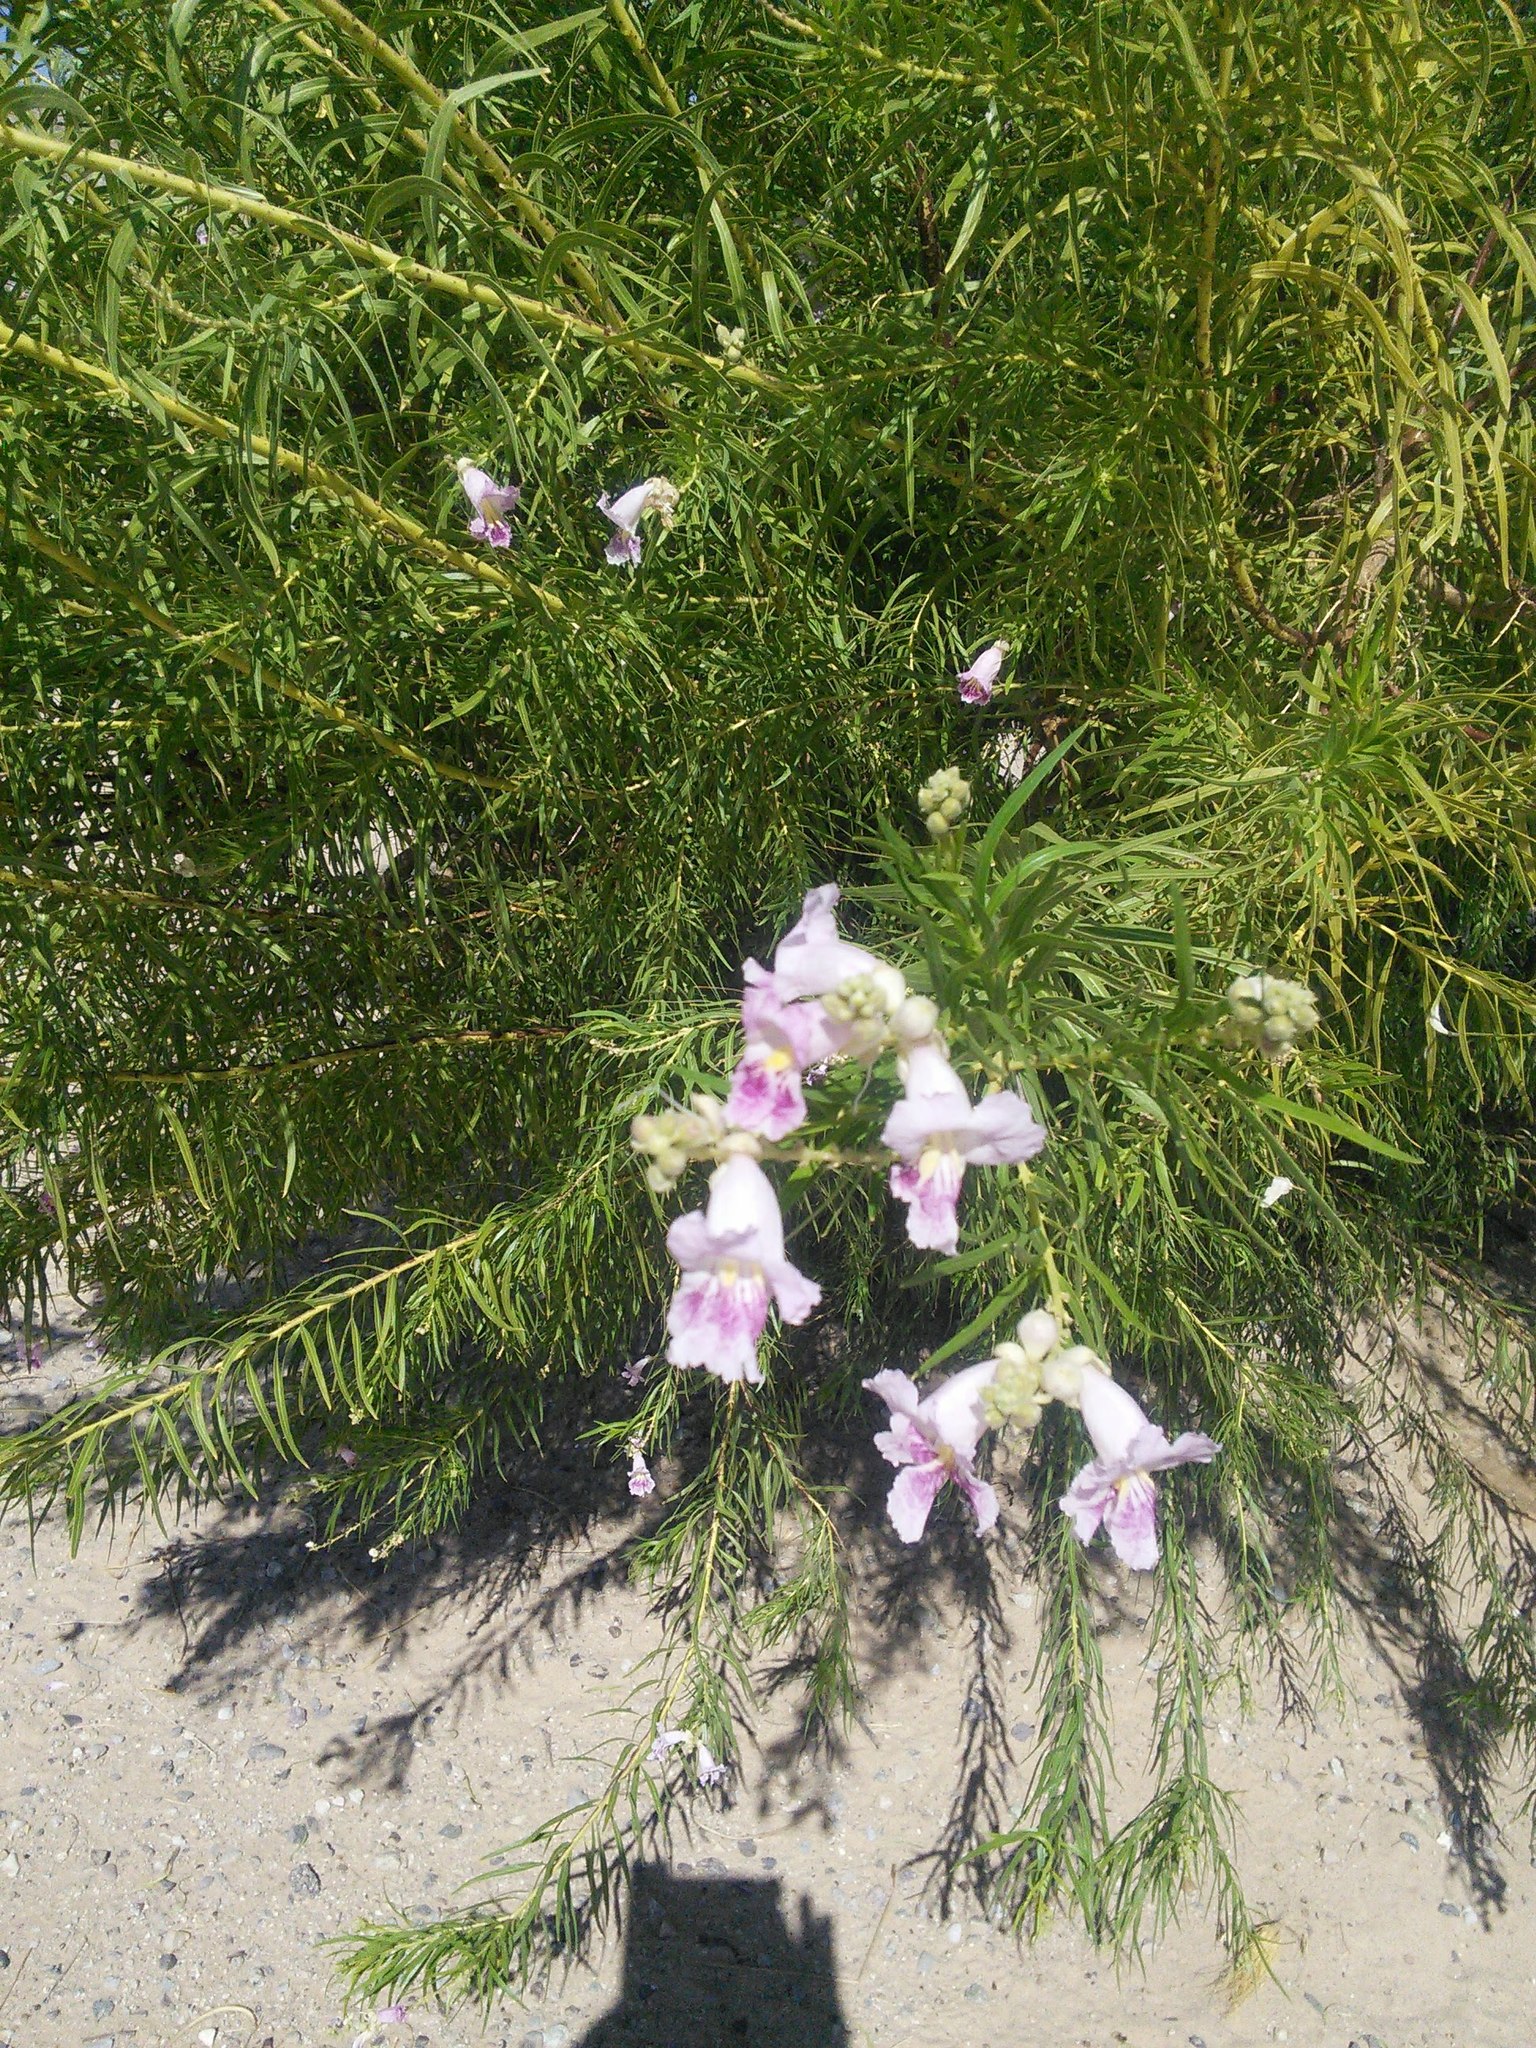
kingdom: Plantae
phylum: Tracheophyta
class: Magnoliopsida
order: Lamiales
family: Bignoniaceae
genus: Chilopsis
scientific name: Chilopsis linearis
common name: Desert-willow
